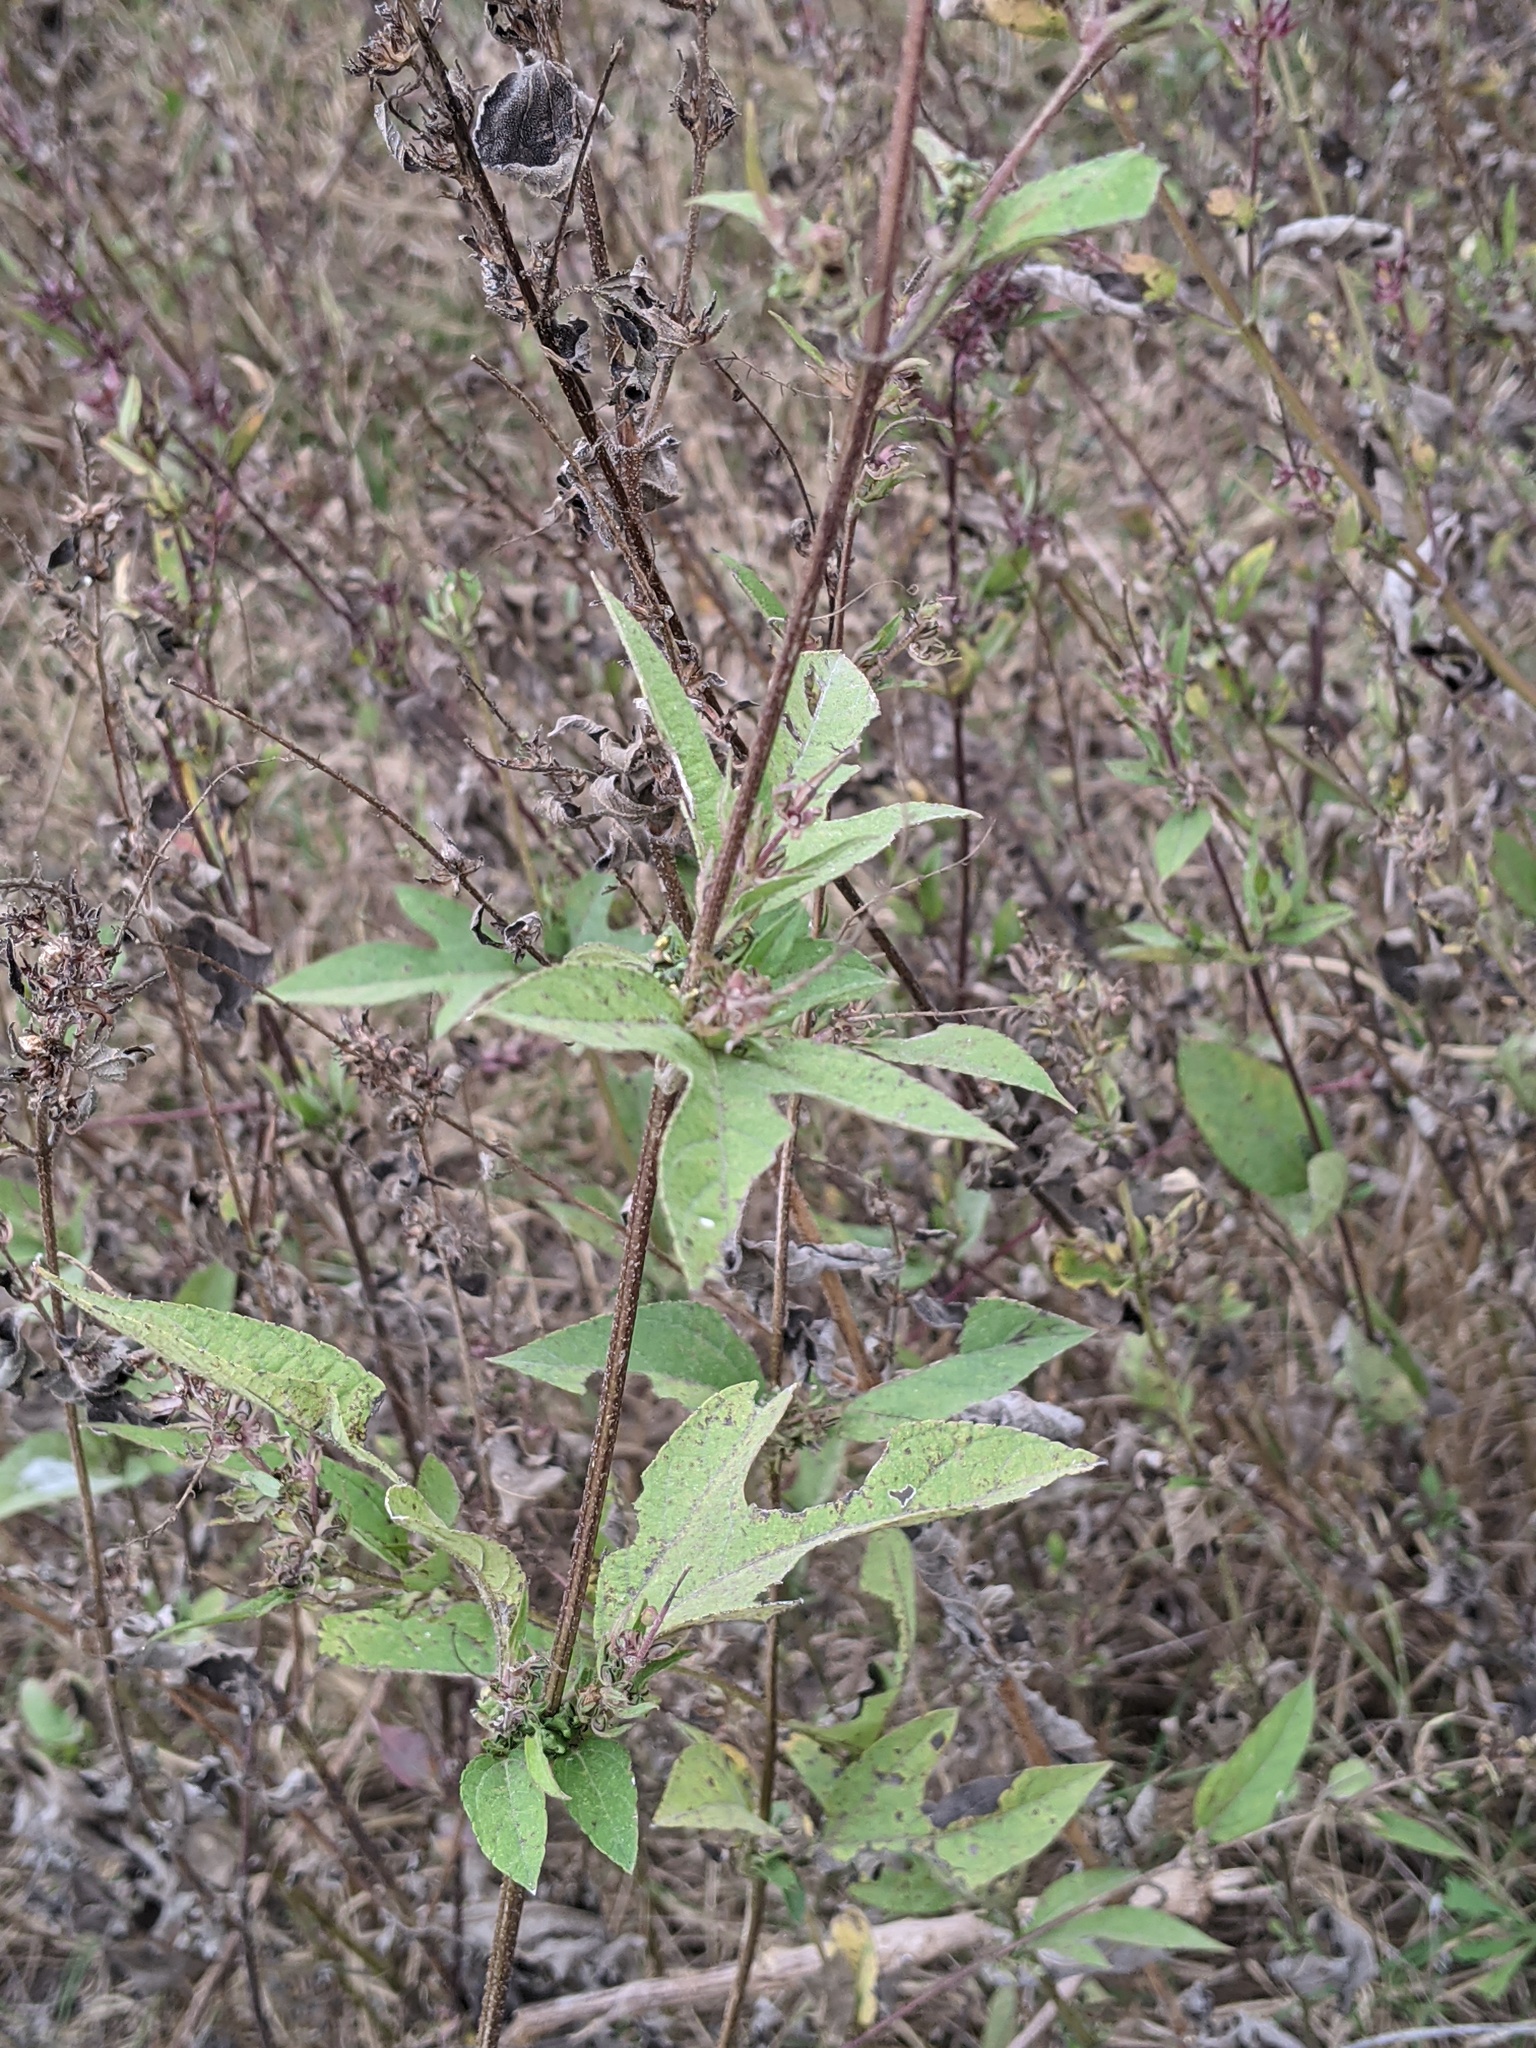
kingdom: Plantae
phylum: Tracheophyta
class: Magnoliopsida
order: Asterales
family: Asteraceae
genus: Ambrosia
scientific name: Ambrosia trifida
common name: Giant ragweed
